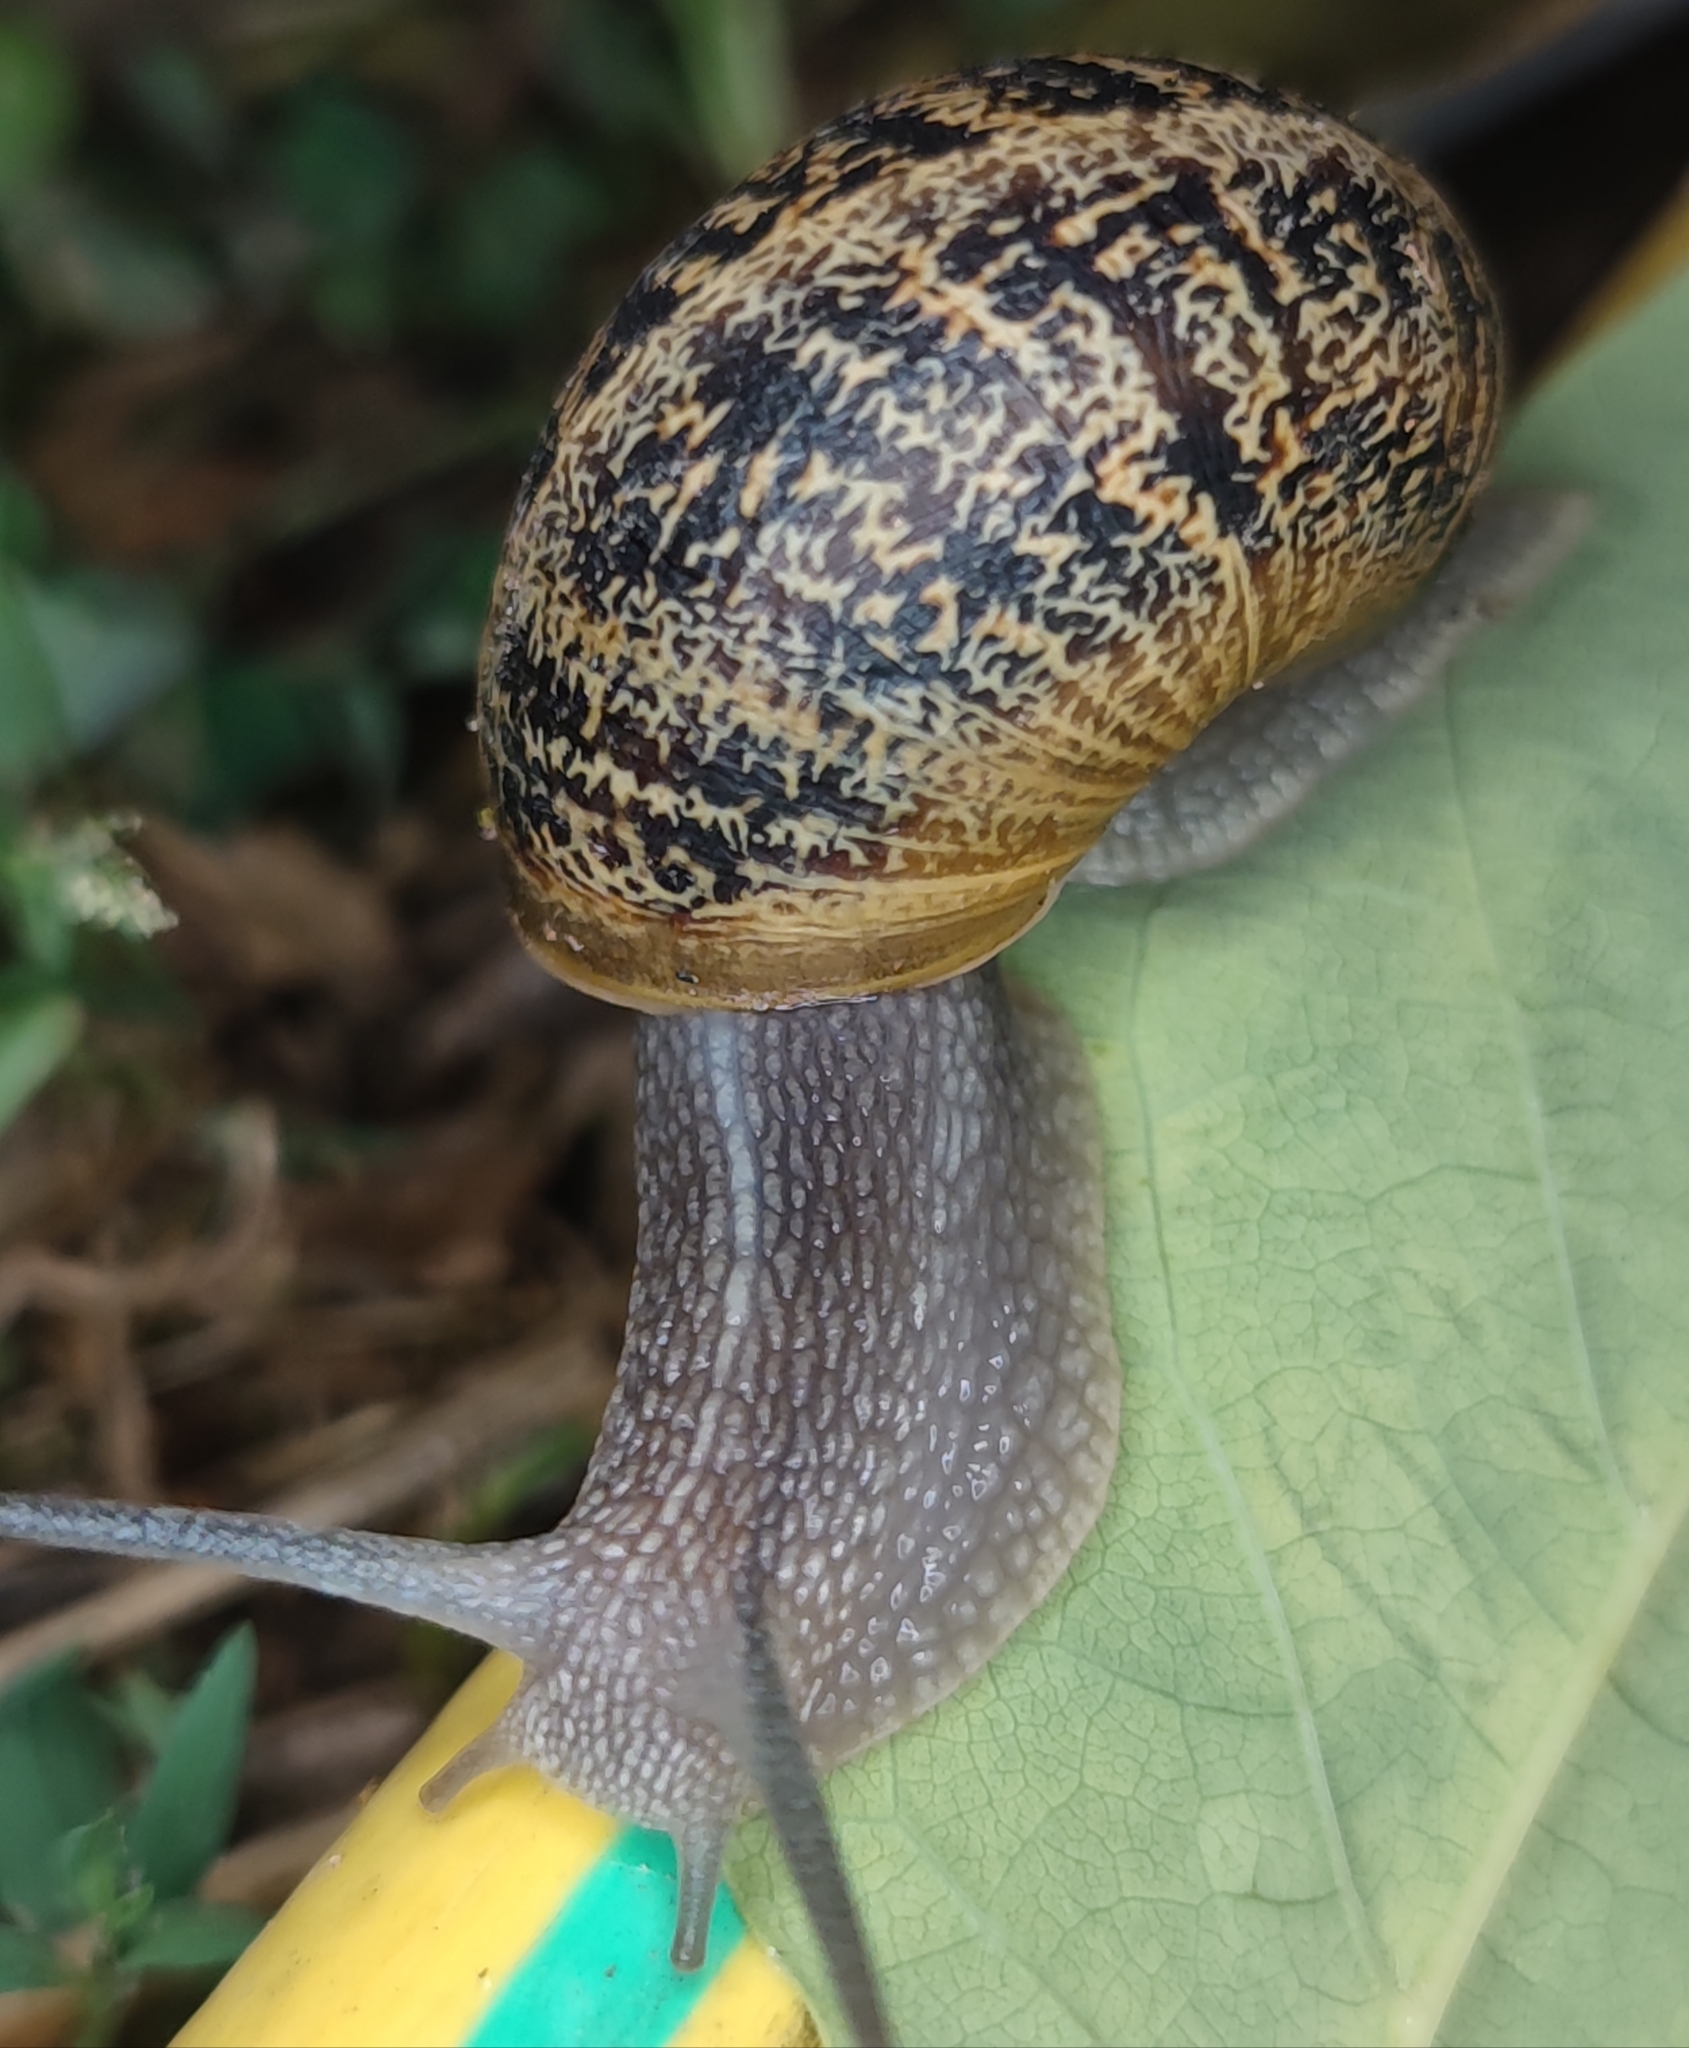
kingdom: Animalia
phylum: Mollusca
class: Gastropoda
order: Stylommatophora
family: Helicidae
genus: Cornu
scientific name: Cornu aspersum
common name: Brown garden snail
